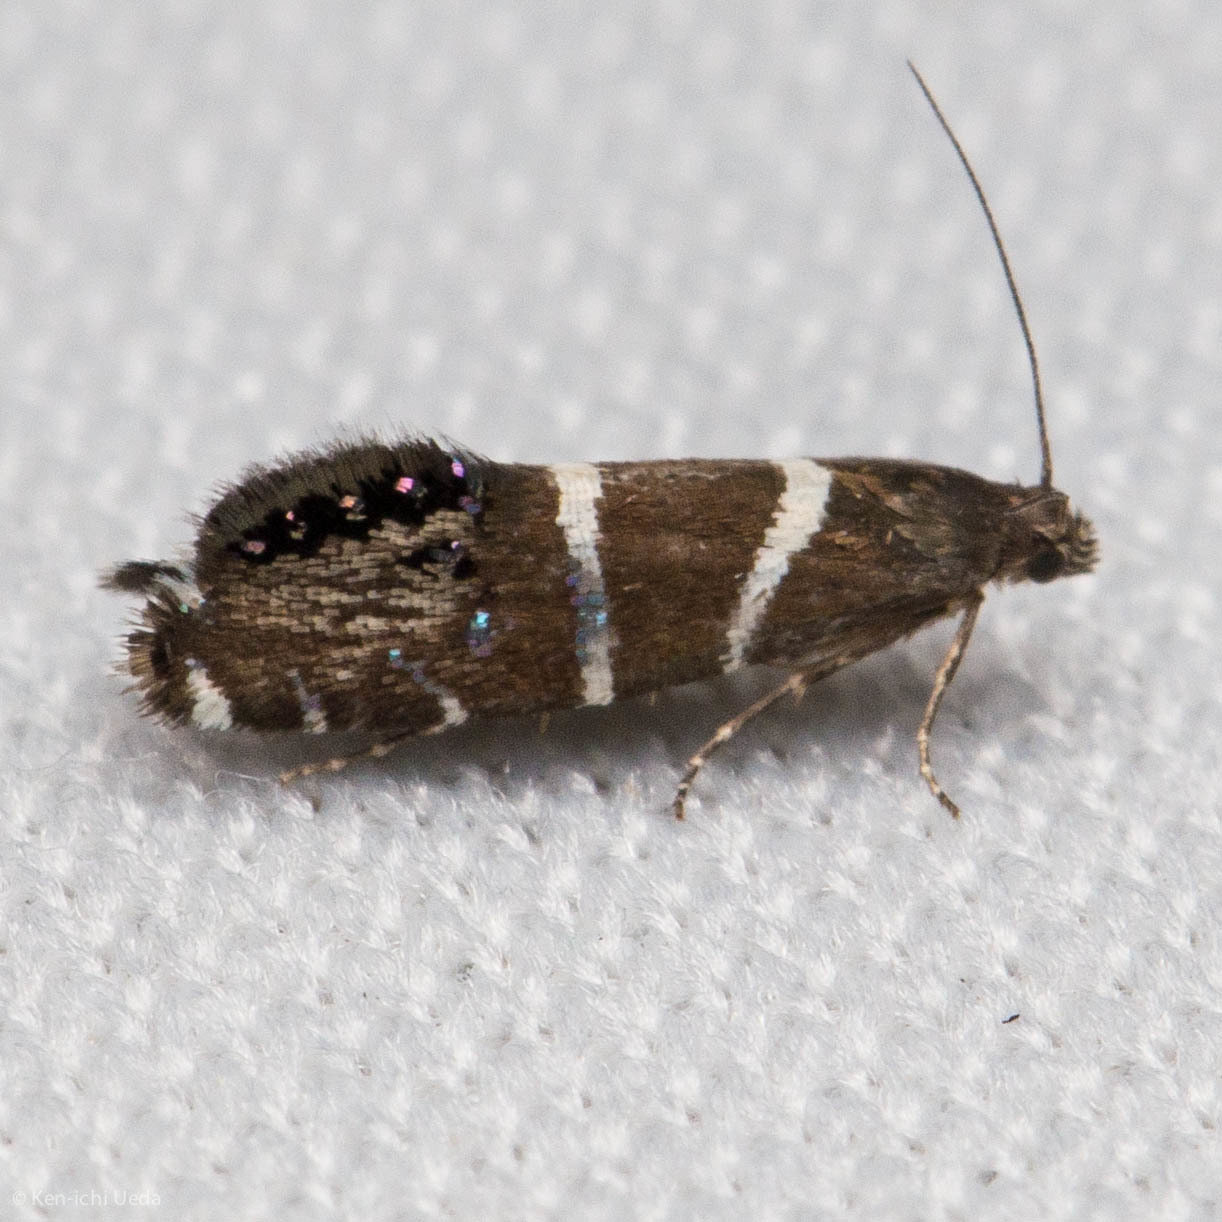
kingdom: Animalia
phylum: Arthropoda
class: Insecta
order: Lepidoptera
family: Glyphipterigidae
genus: Glyphipterix
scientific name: Glyphipterix bifasciata
